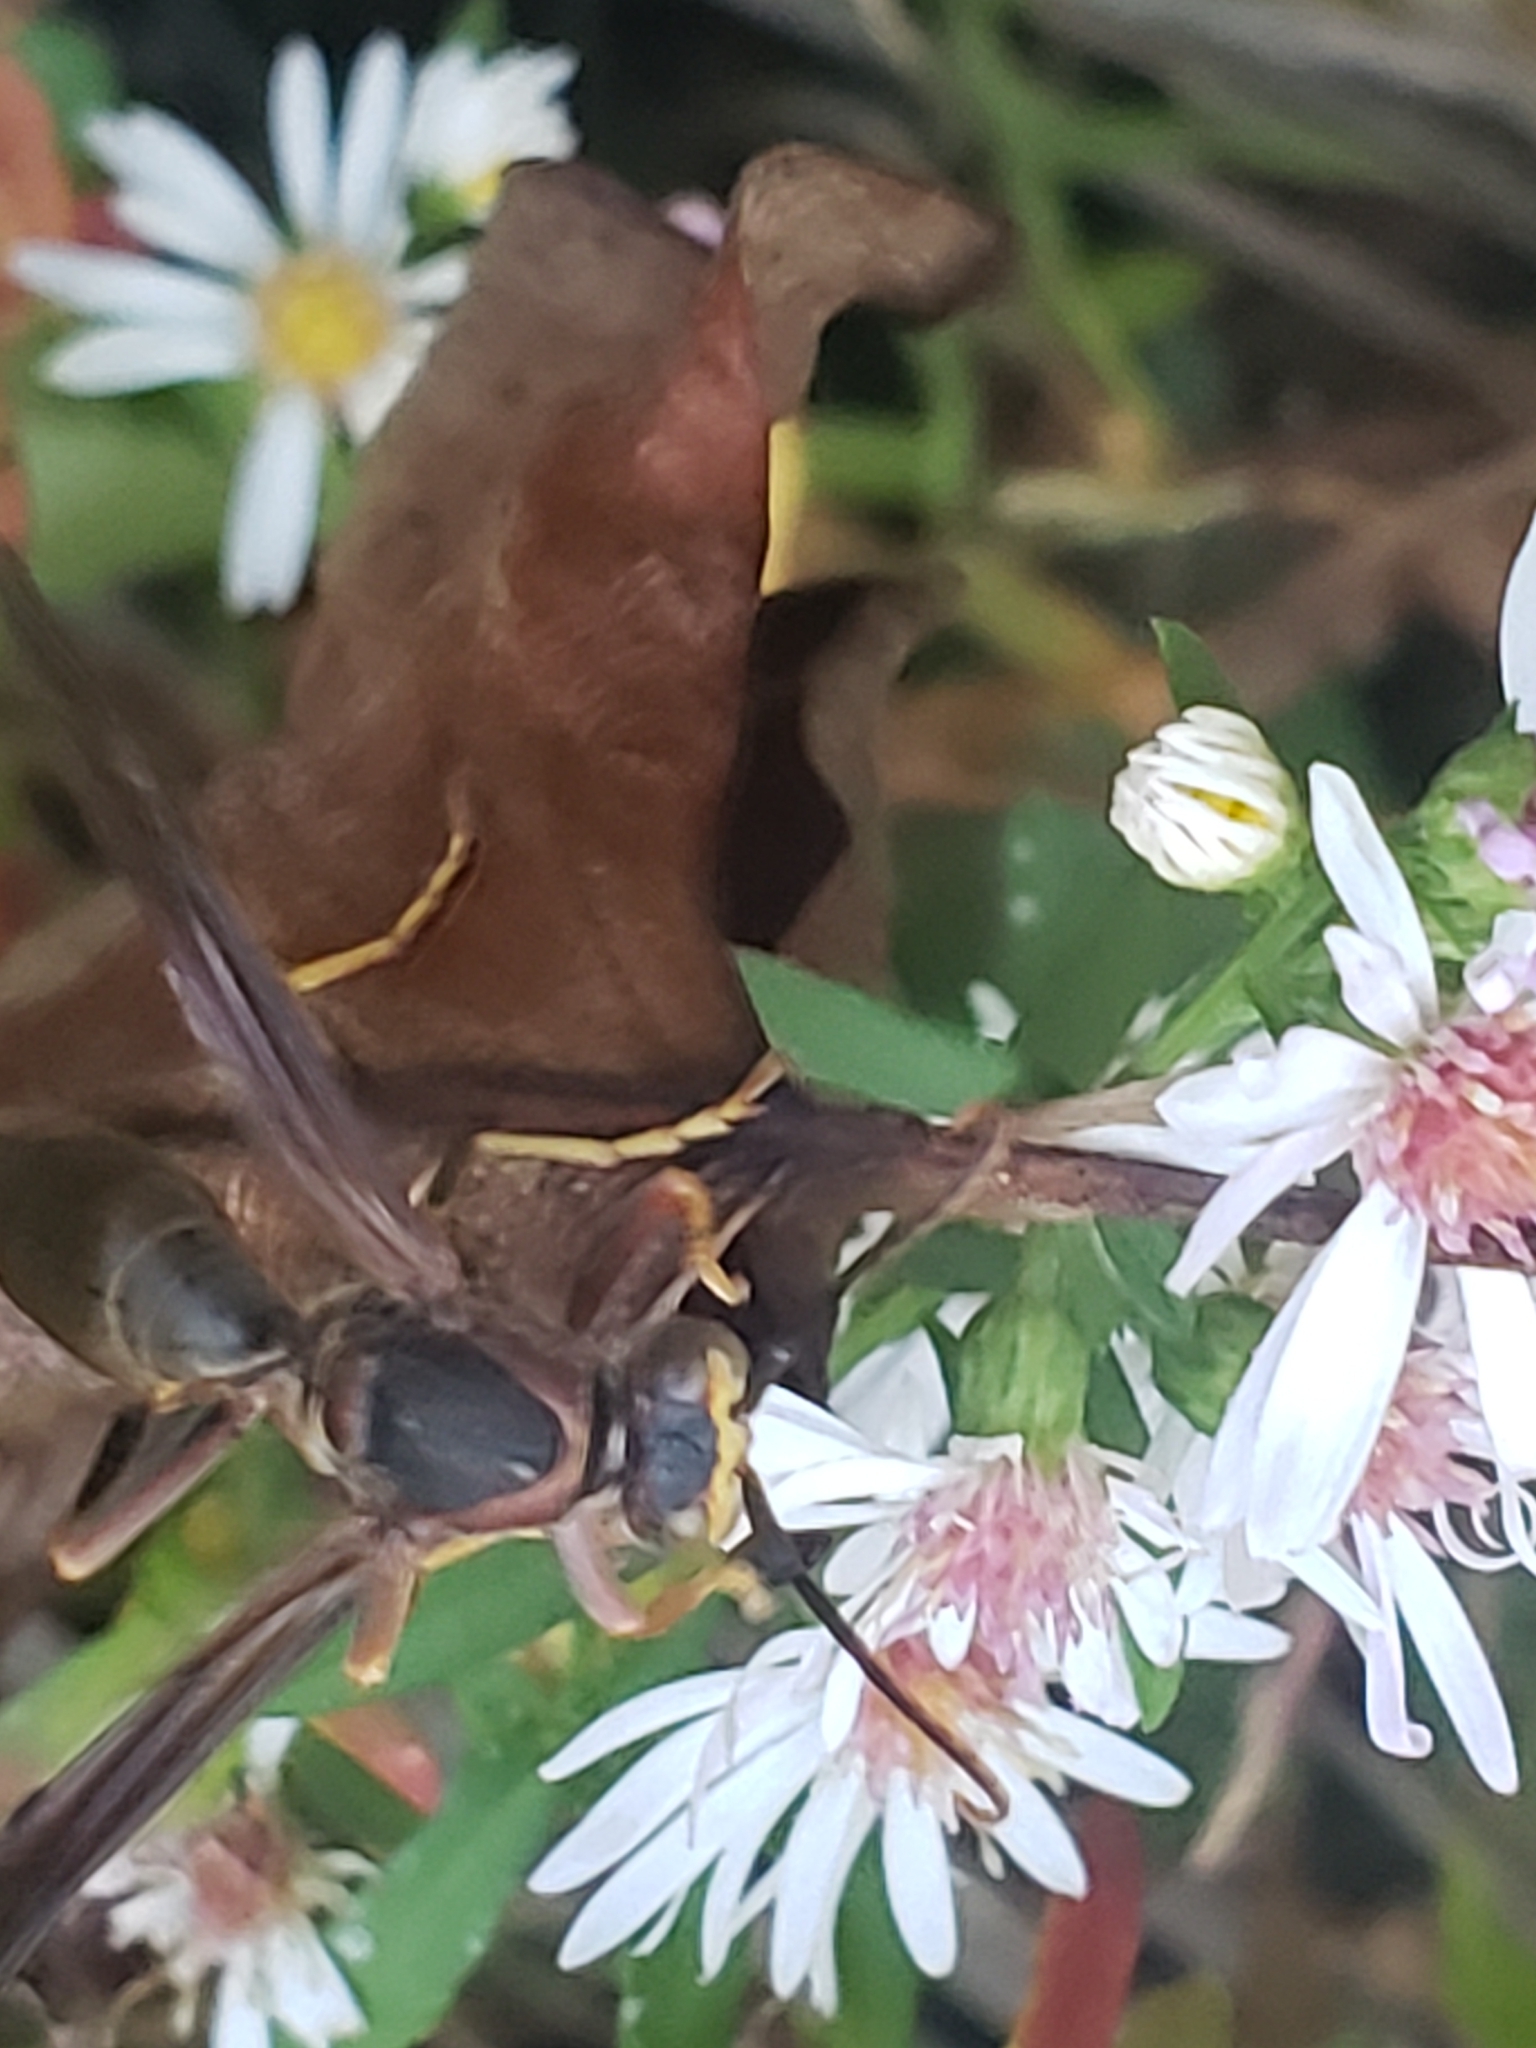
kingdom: Animalia
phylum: Arthropoda
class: Insecta
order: Hymenoptera
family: Eumenidae
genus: Polistes
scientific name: Polistes metricus
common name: Metric paper wasp
